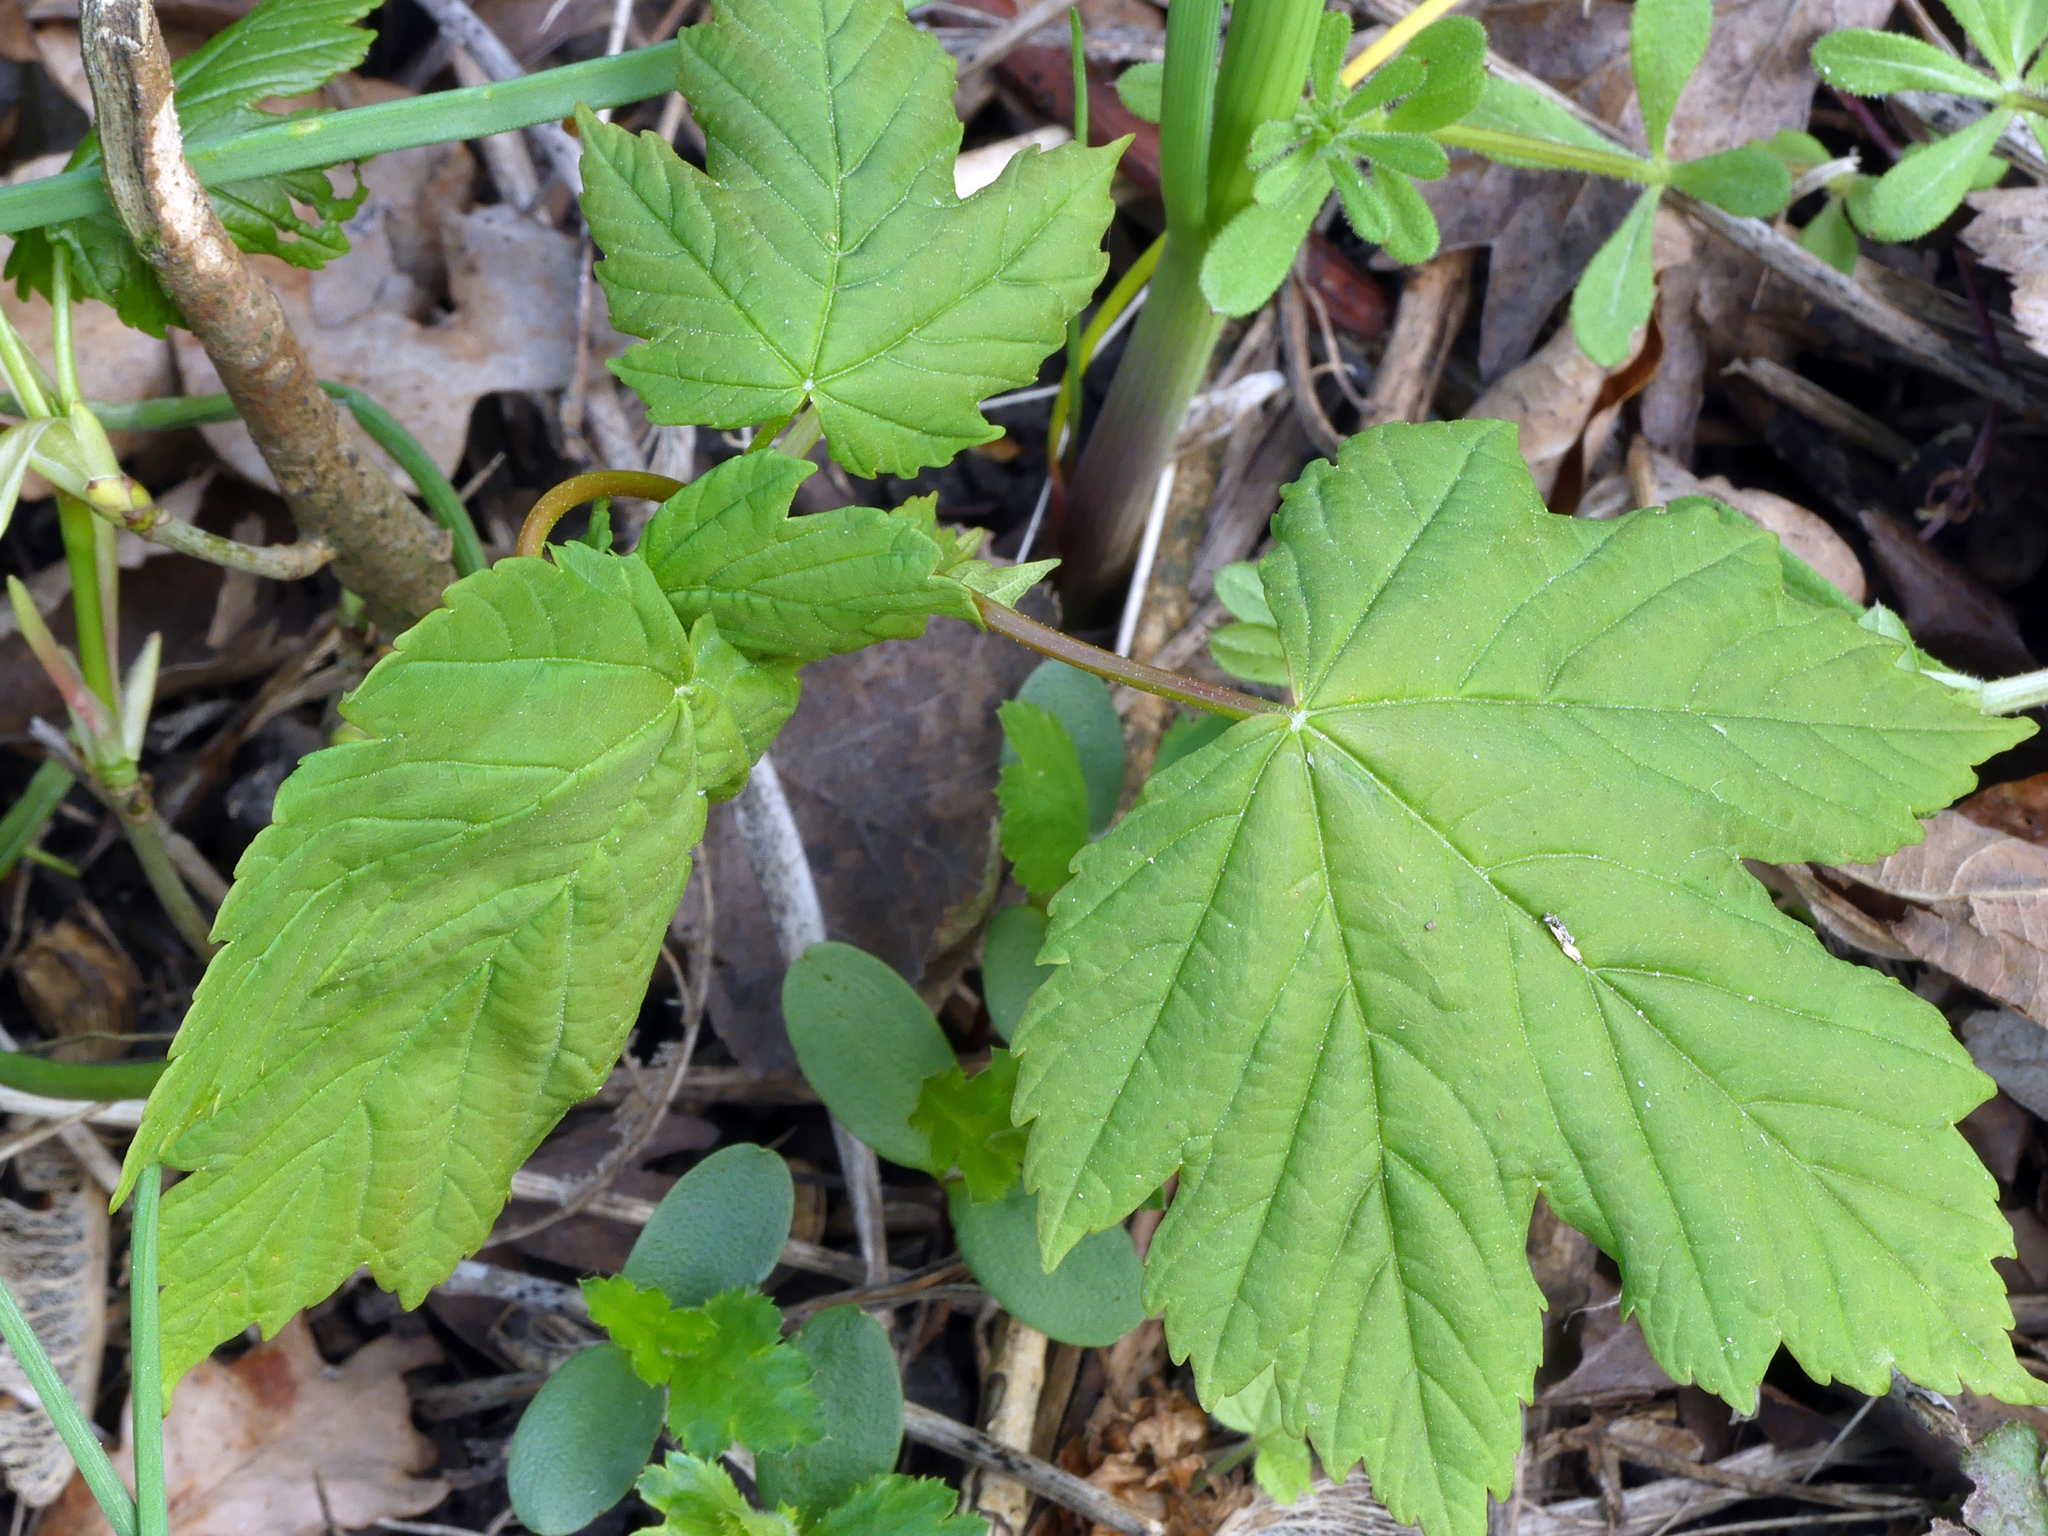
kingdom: Plantae
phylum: Tracheophyta
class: Magnoliopsida
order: Sapindales
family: Sapindaceae
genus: Acer
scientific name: Acer pseudoplatanus
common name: Sycamore
